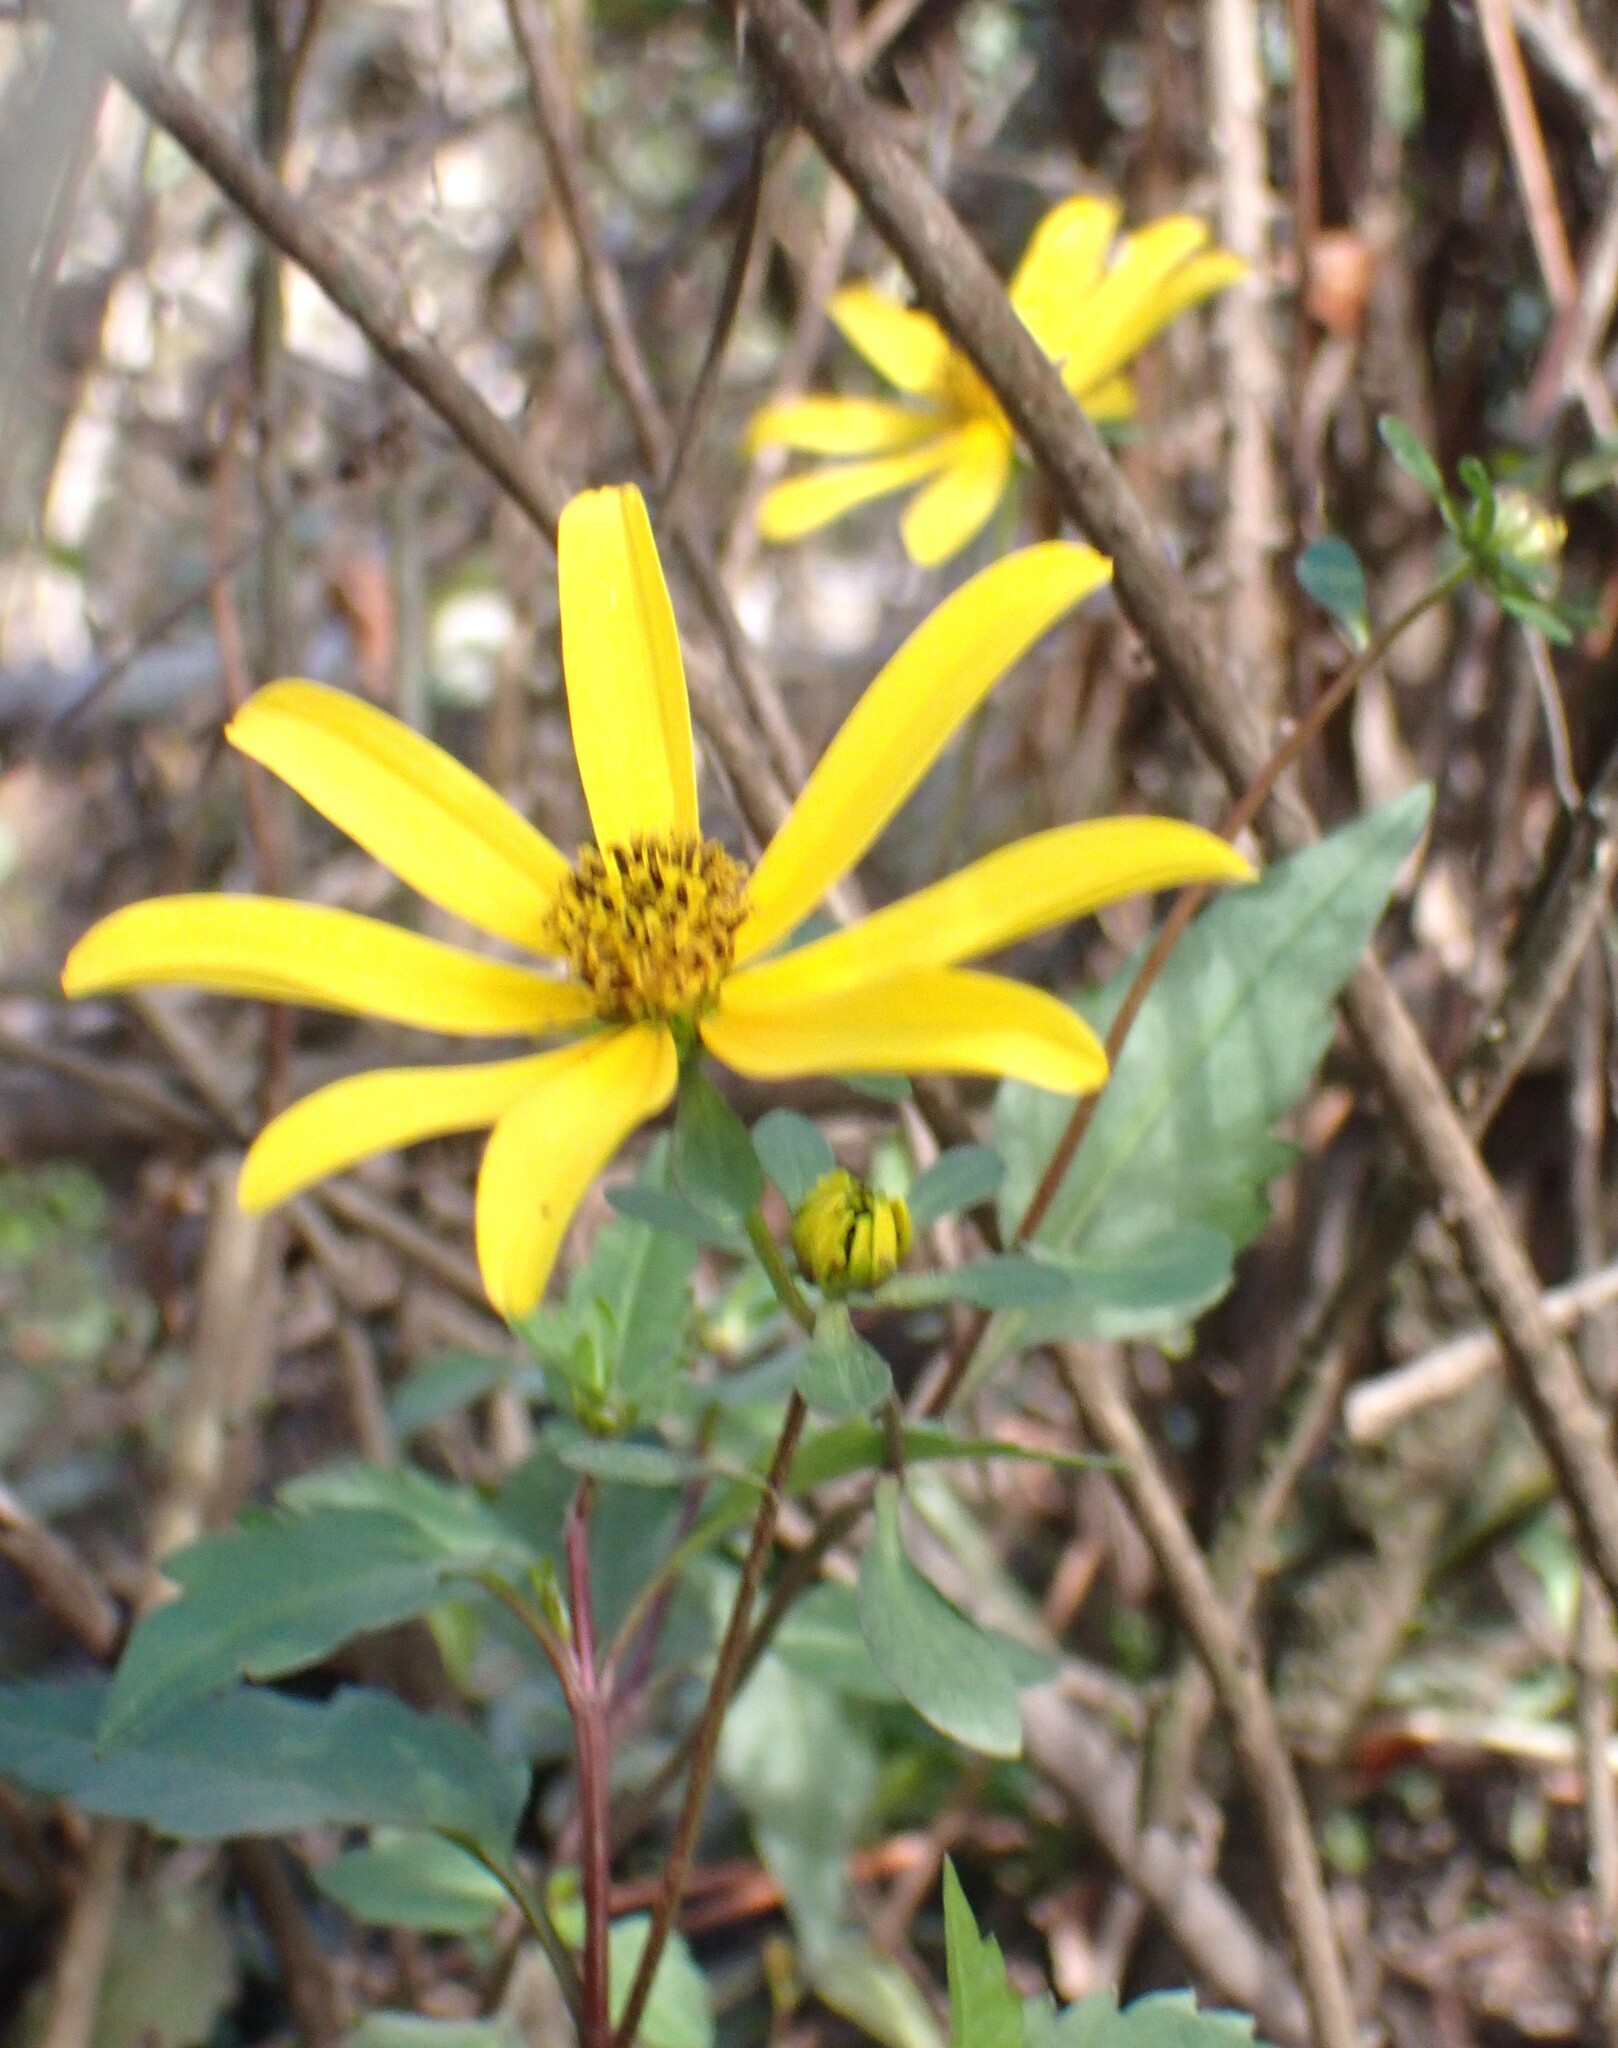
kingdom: Plantae
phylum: Tracheophyta
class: Magnoliopsida
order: Asterales
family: Asteraceae
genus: Bidens
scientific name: Bidens mitis
